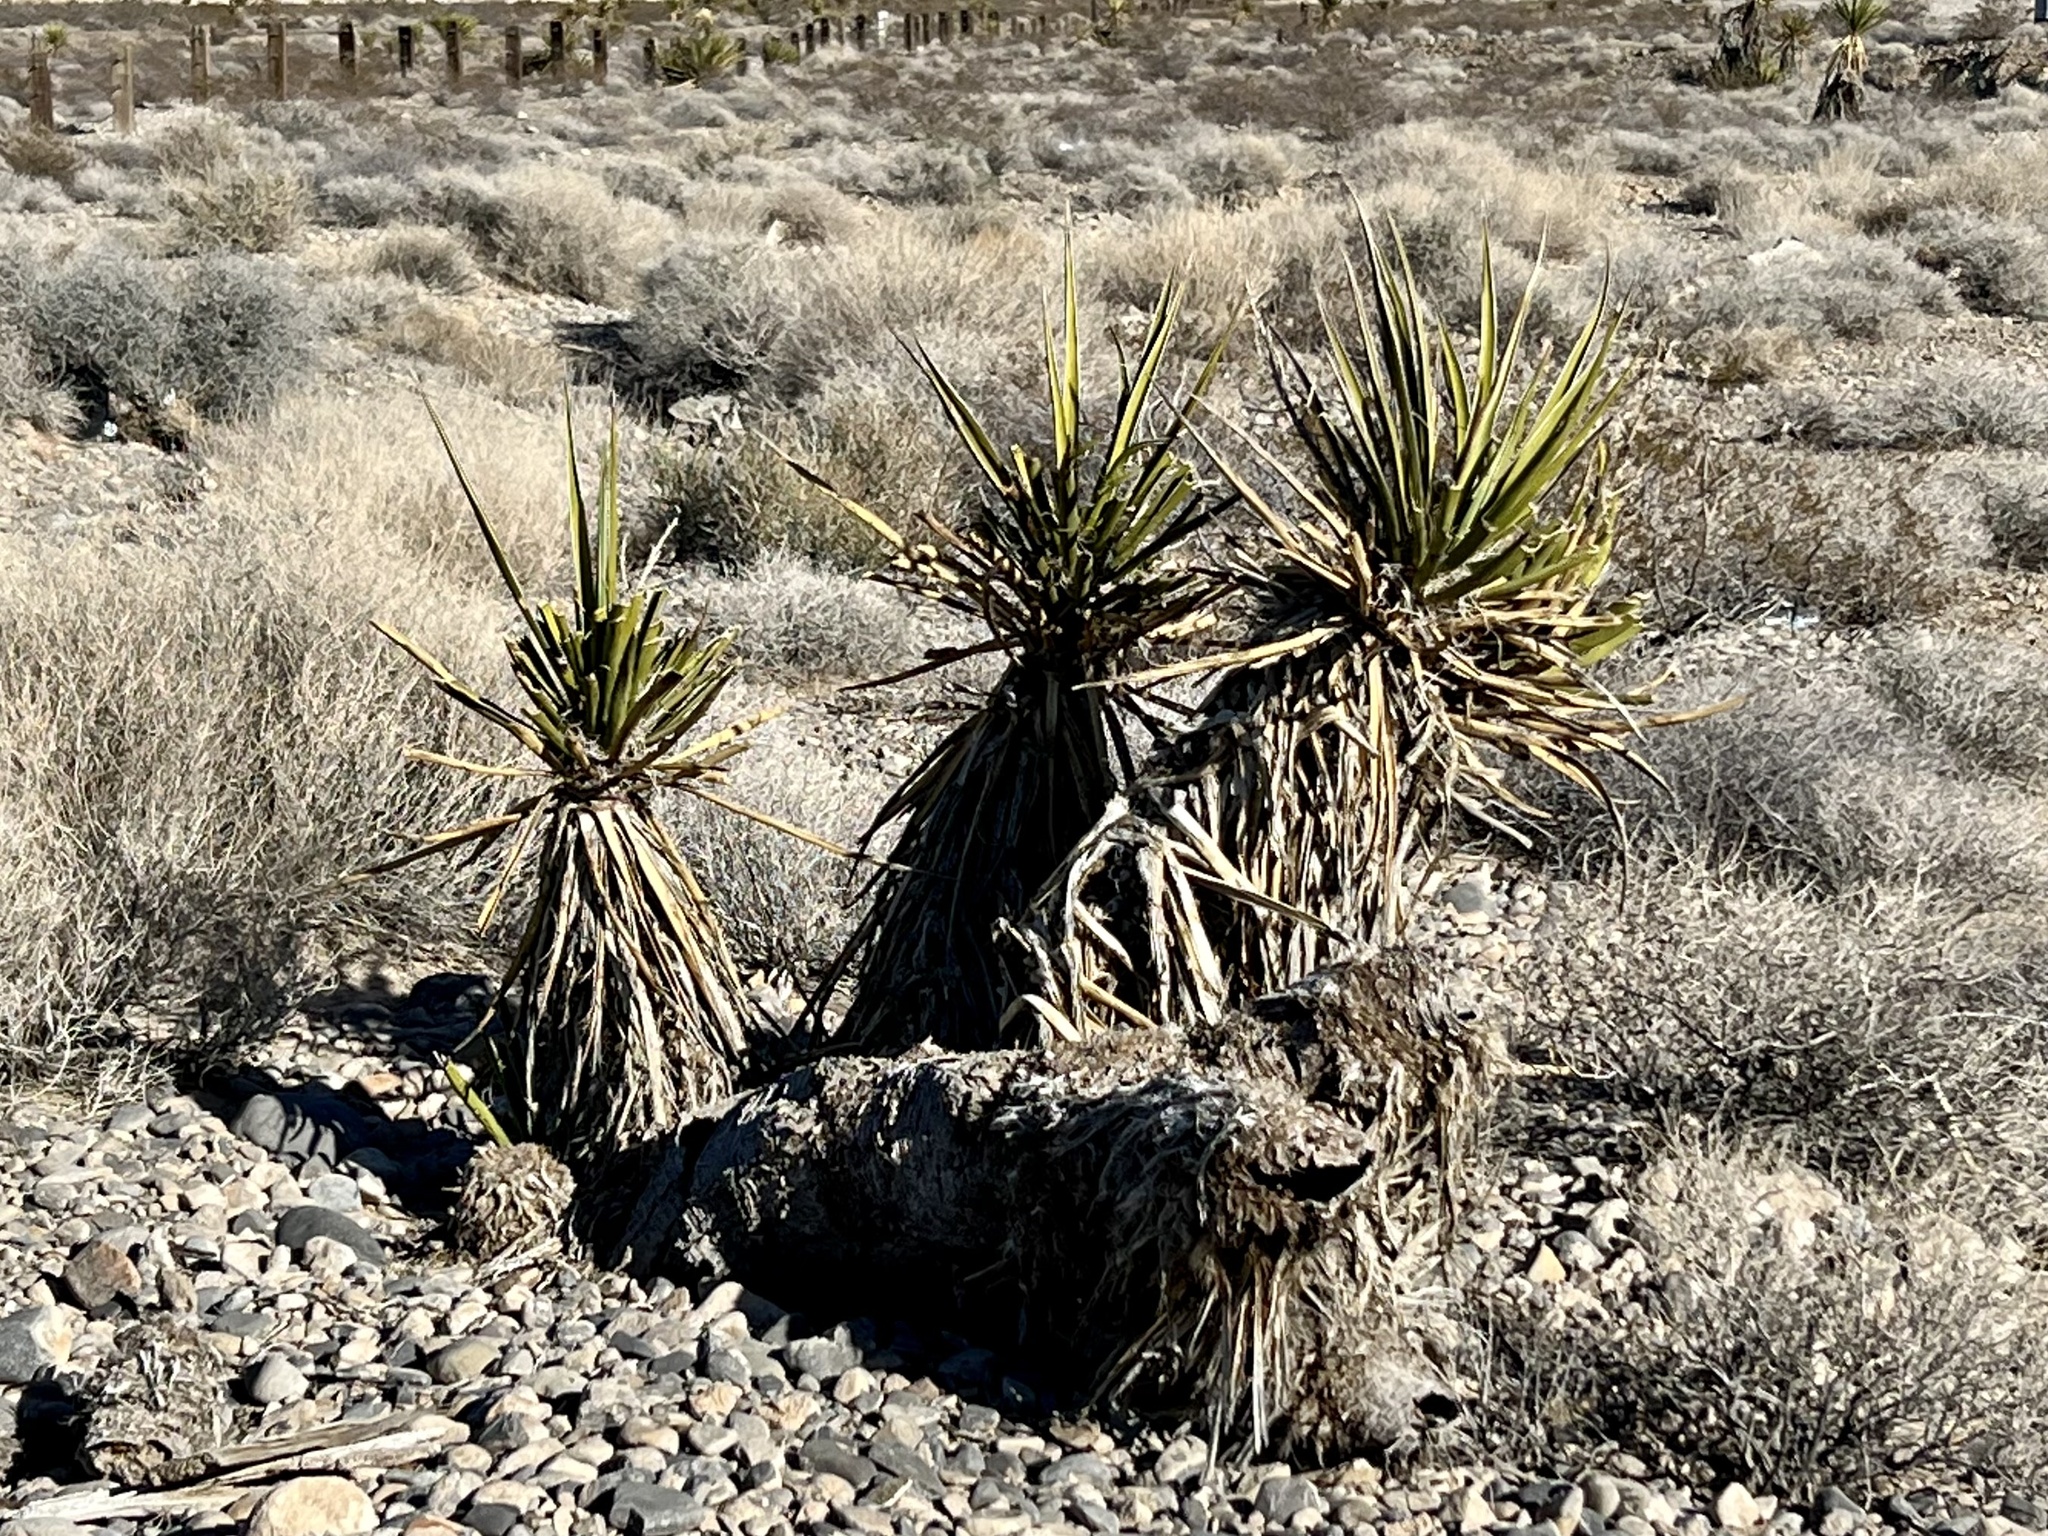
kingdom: Plantae
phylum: Tracheophyta
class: Liliopsida
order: Asparagales
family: Asparagaceae
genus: Yucca
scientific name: Yucca schidigera
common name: Mojave yucca
